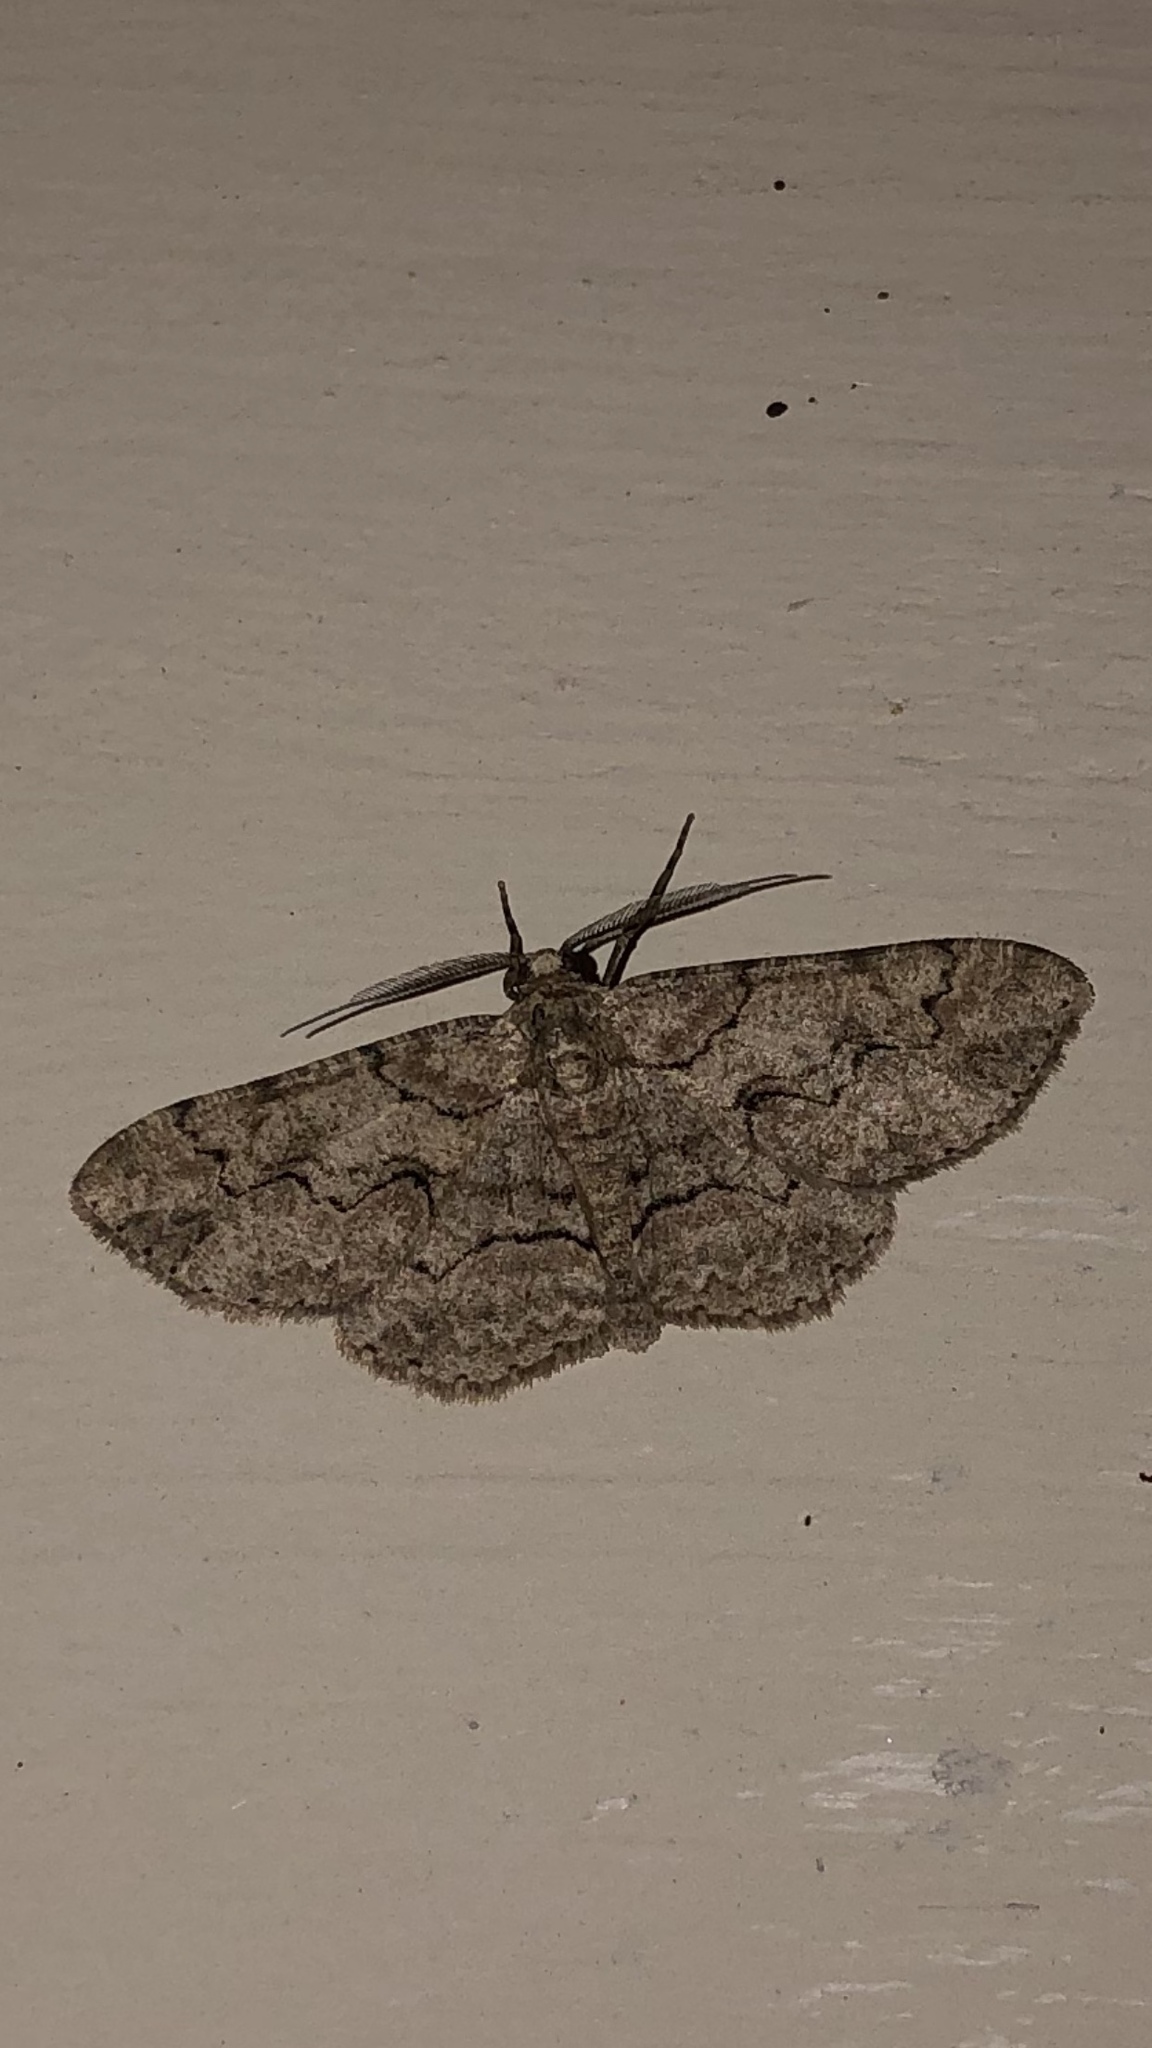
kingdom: Animalia
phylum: Arthropoda
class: Insecta
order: Lepidoptera
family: Geometridae
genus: Iridopsis
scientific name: Iridopsis defectaria
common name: Brown-shaded gray
